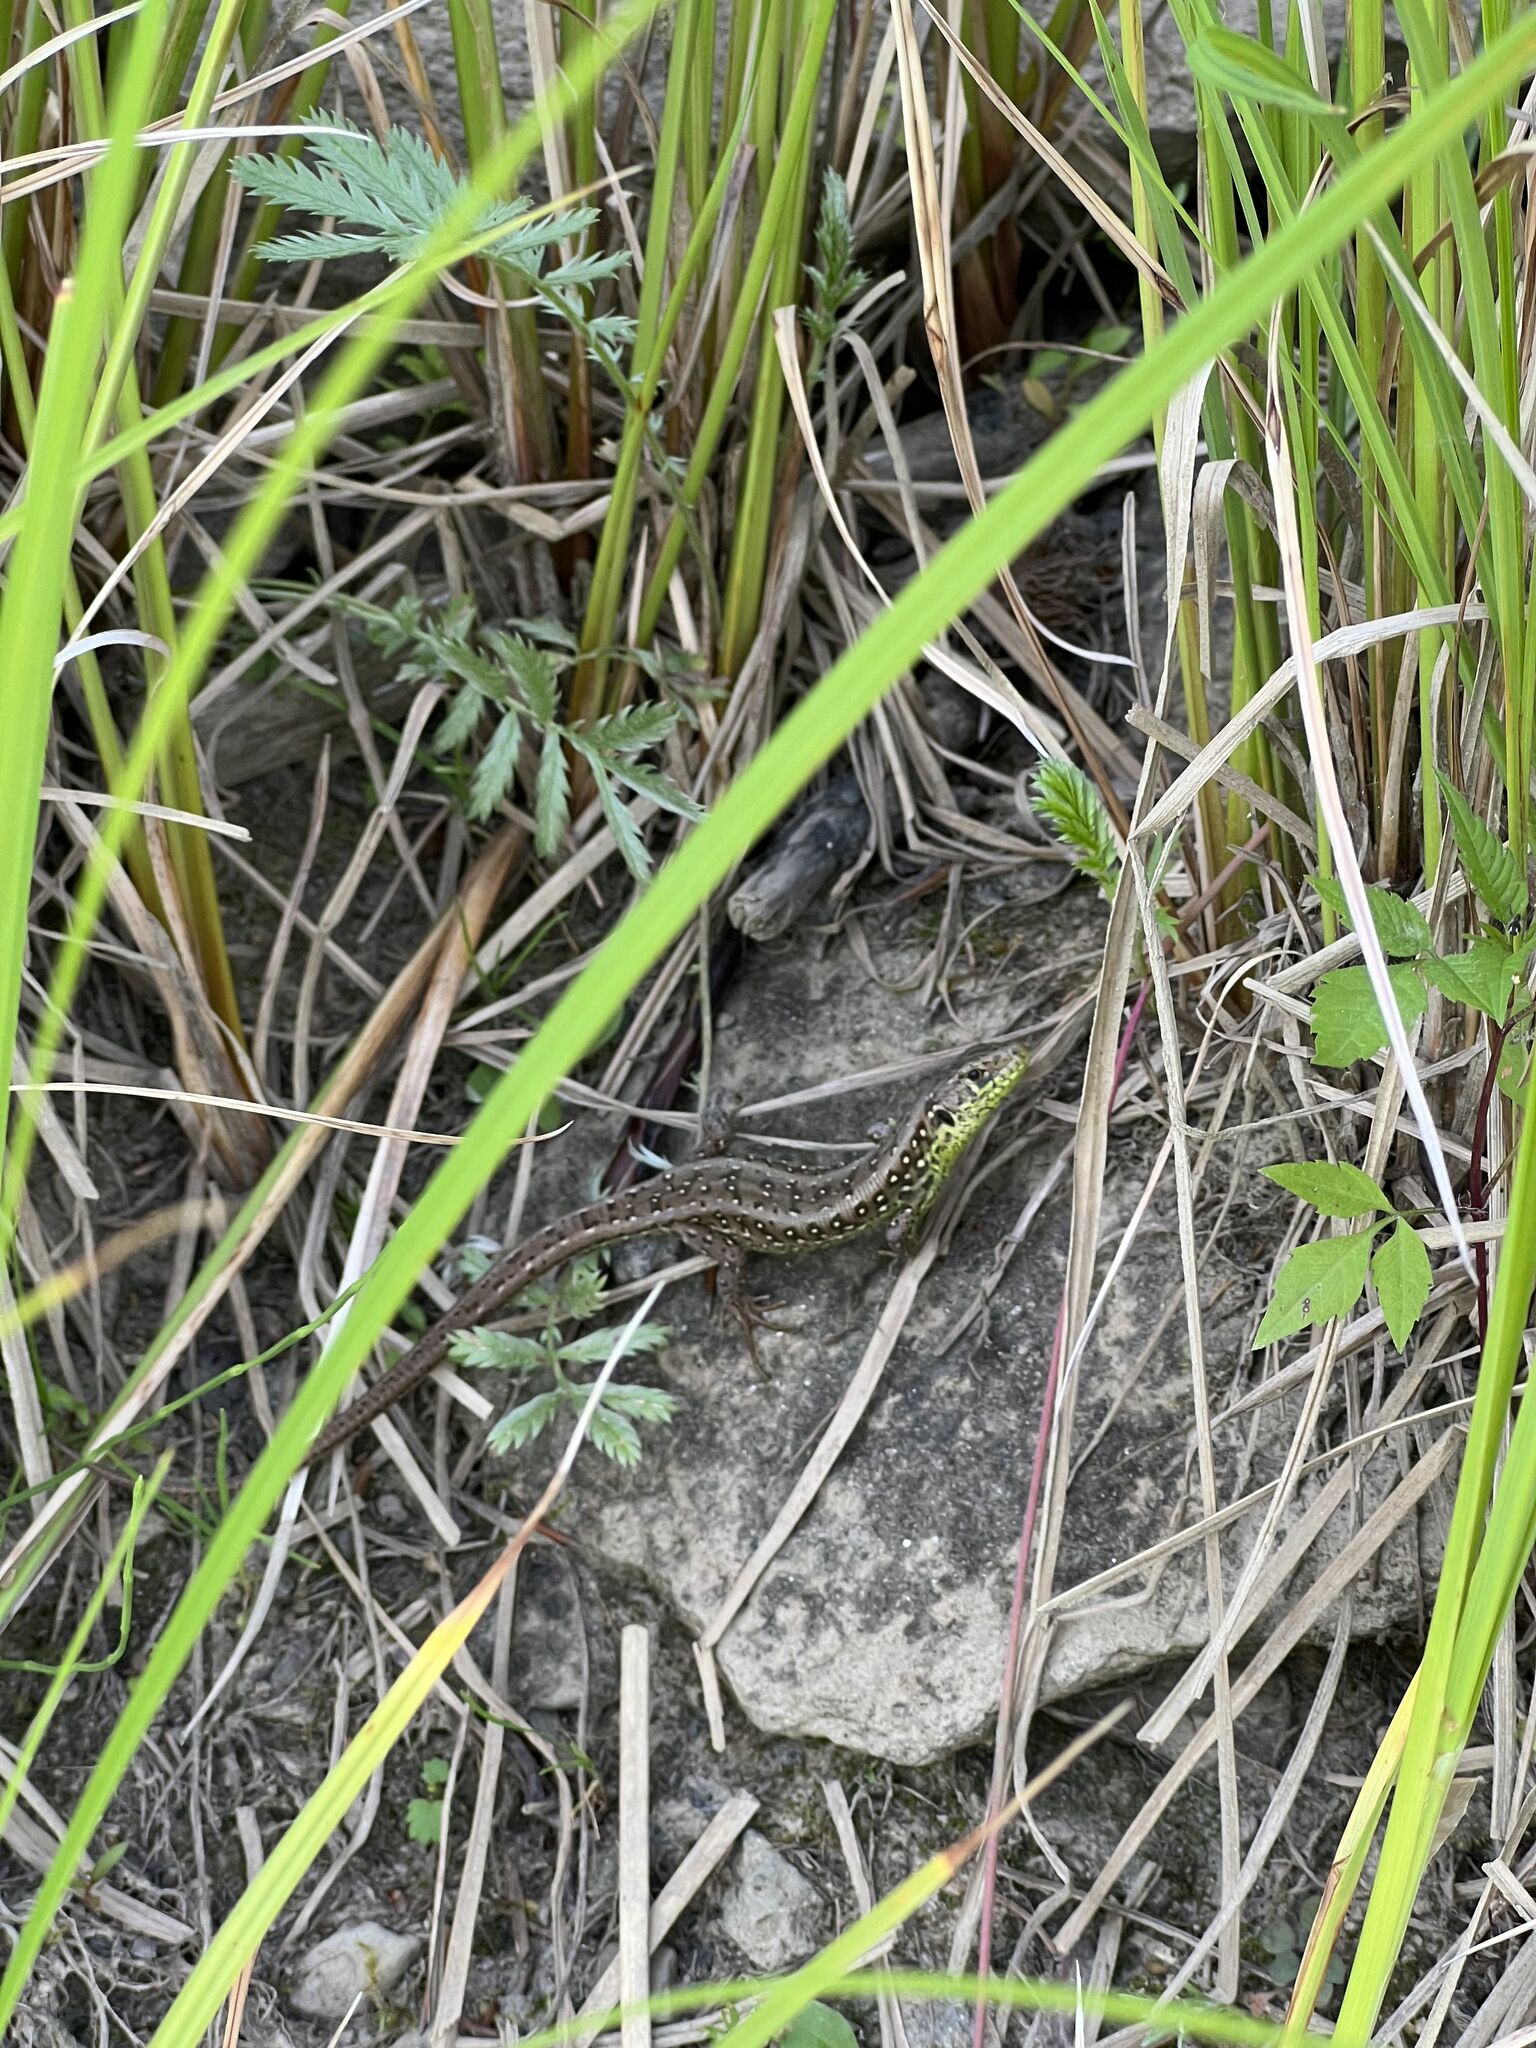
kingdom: Animalia
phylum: Chordata
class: Squamata
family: Lacertidae
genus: Lacerta
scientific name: Lacerta agilis
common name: Sand lizard
